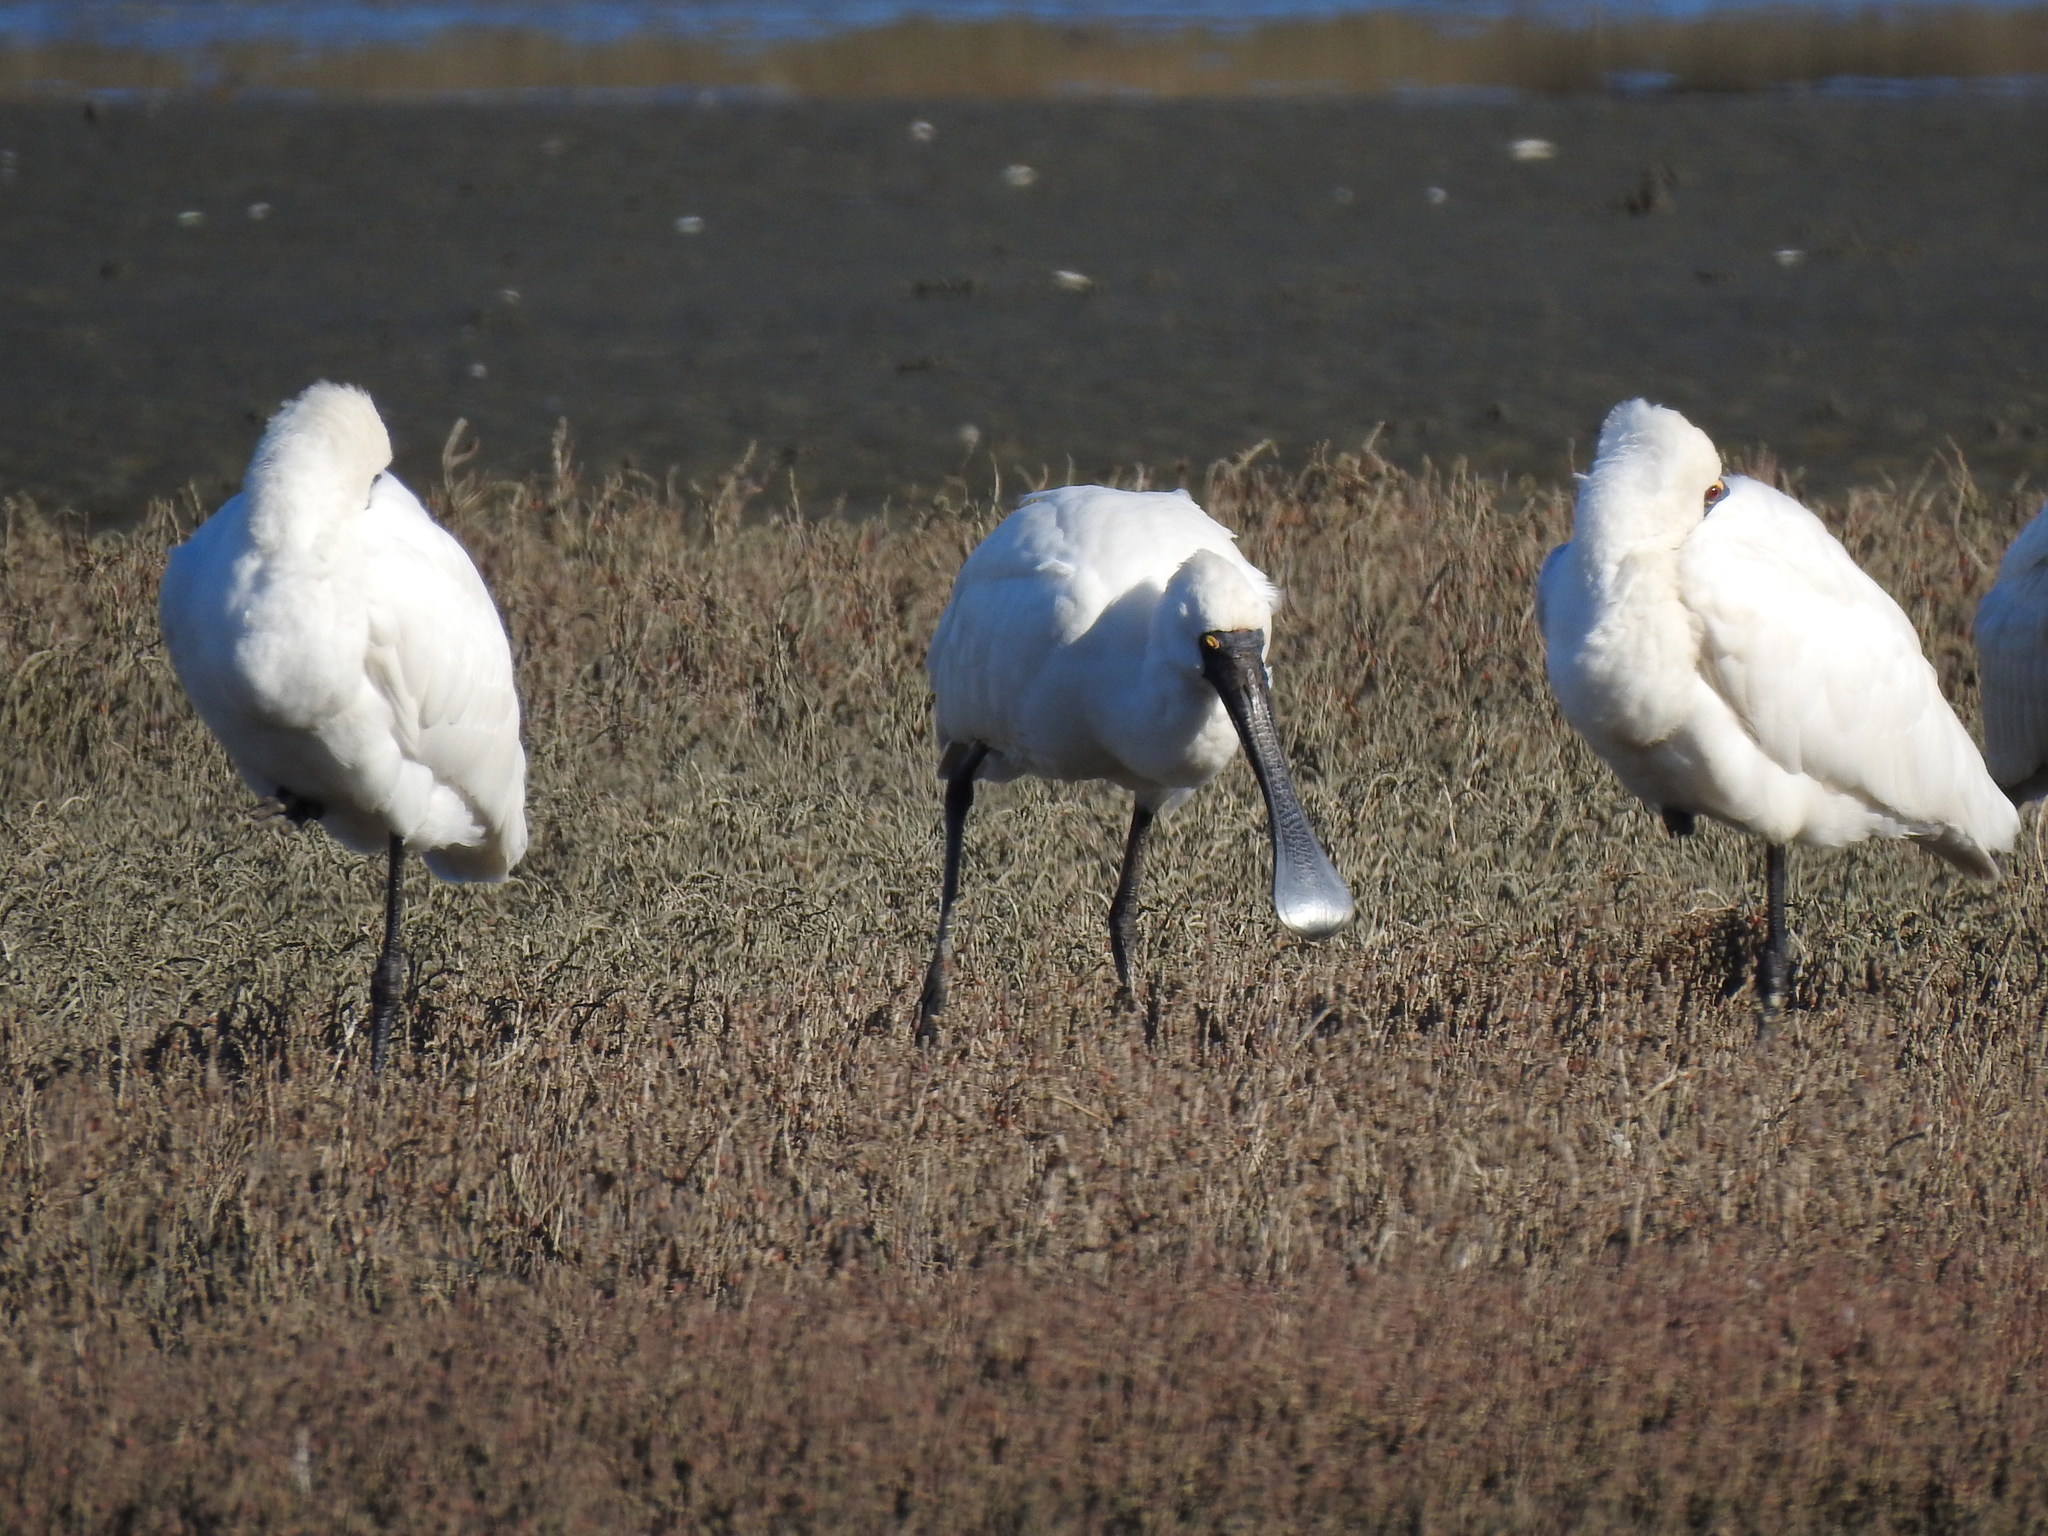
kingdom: Animalia
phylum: Chordata
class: Aves
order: Pelecaniformes
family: Threskiornithidae
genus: Platalea
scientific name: Platalea regia
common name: Royal spoonbill
